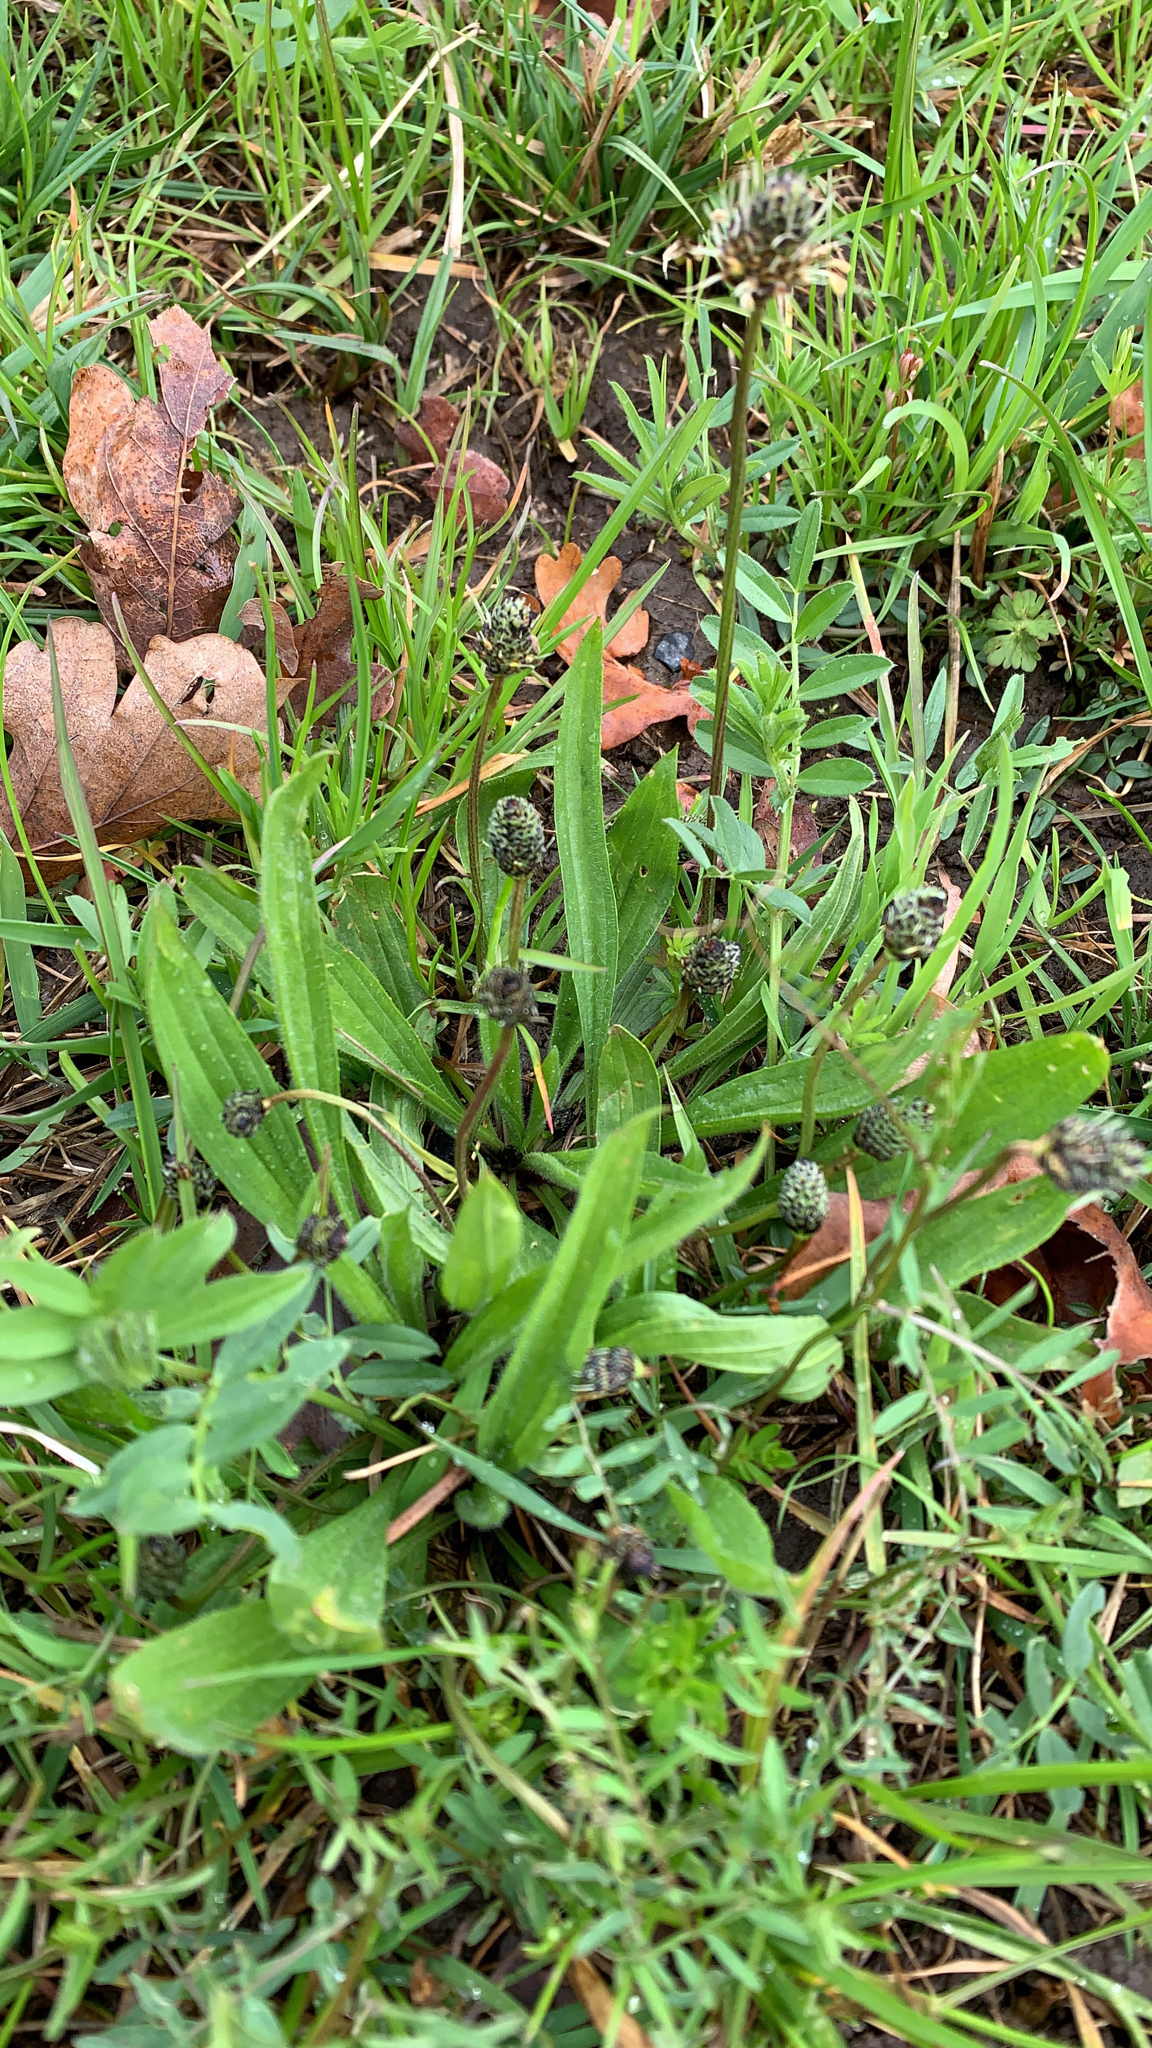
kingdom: Plantae
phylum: Tracheophyta
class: Magnoliopsida
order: Lamiales
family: Plantaginaceae
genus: Plantago
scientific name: Plantago lanceolata
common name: Ribwort plantain
